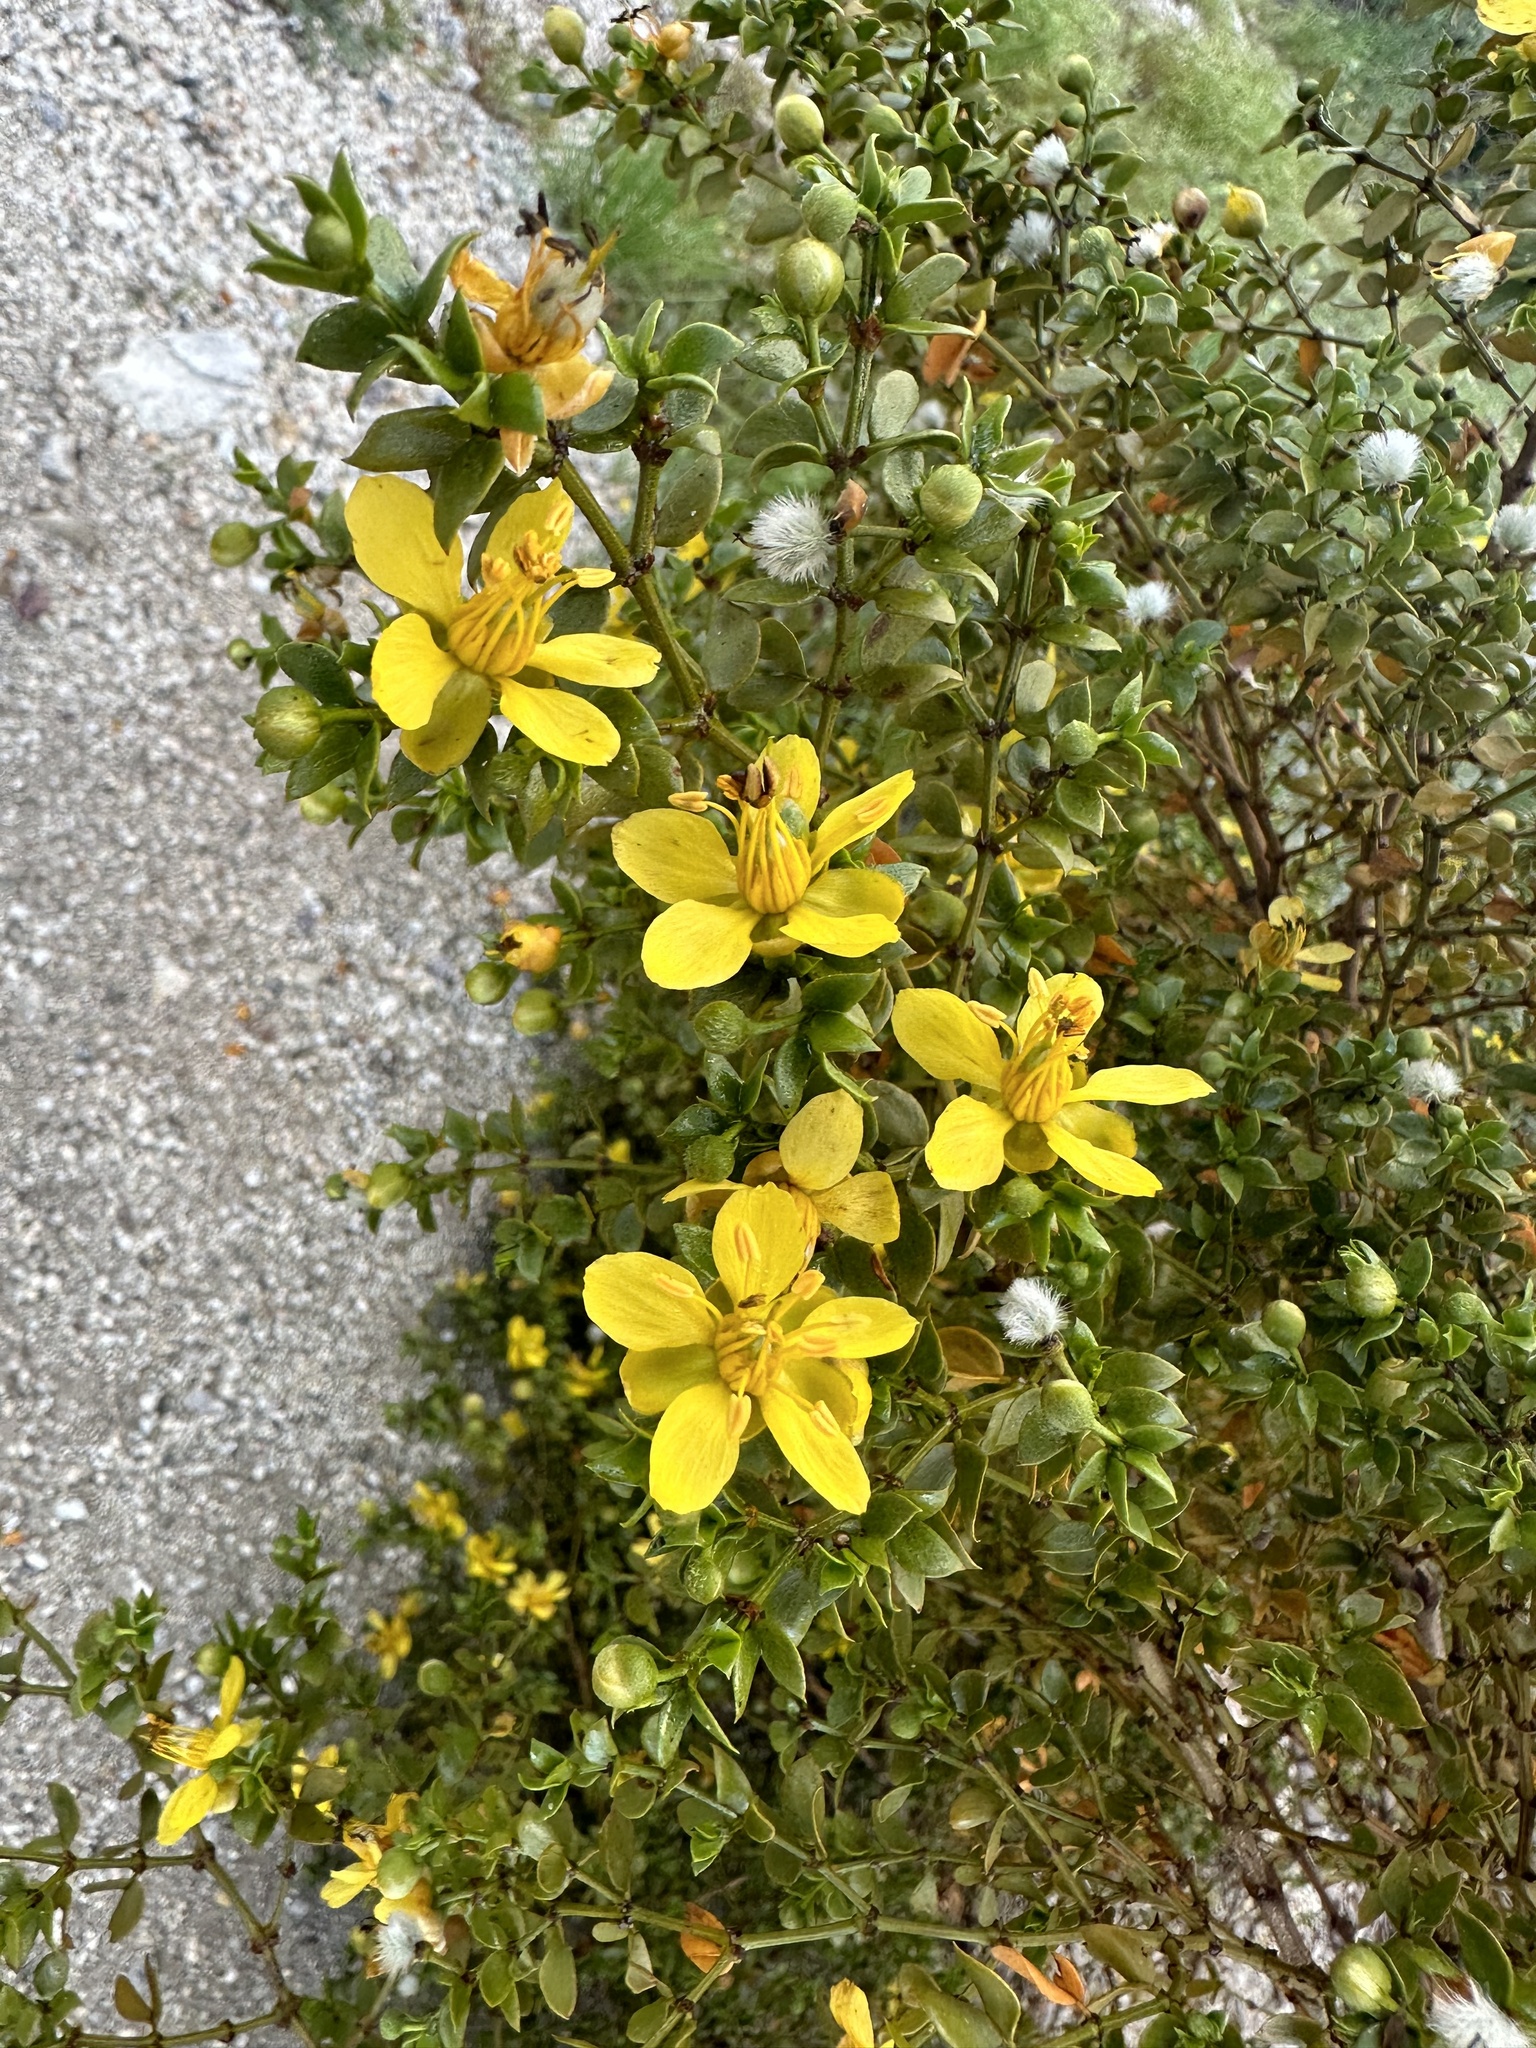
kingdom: Plantae
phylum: Tracheophyta
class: Magnoliopsida
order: Zygophyllales
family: Zygophyllaceae
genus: Larrea
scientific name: Larrea tridentata
